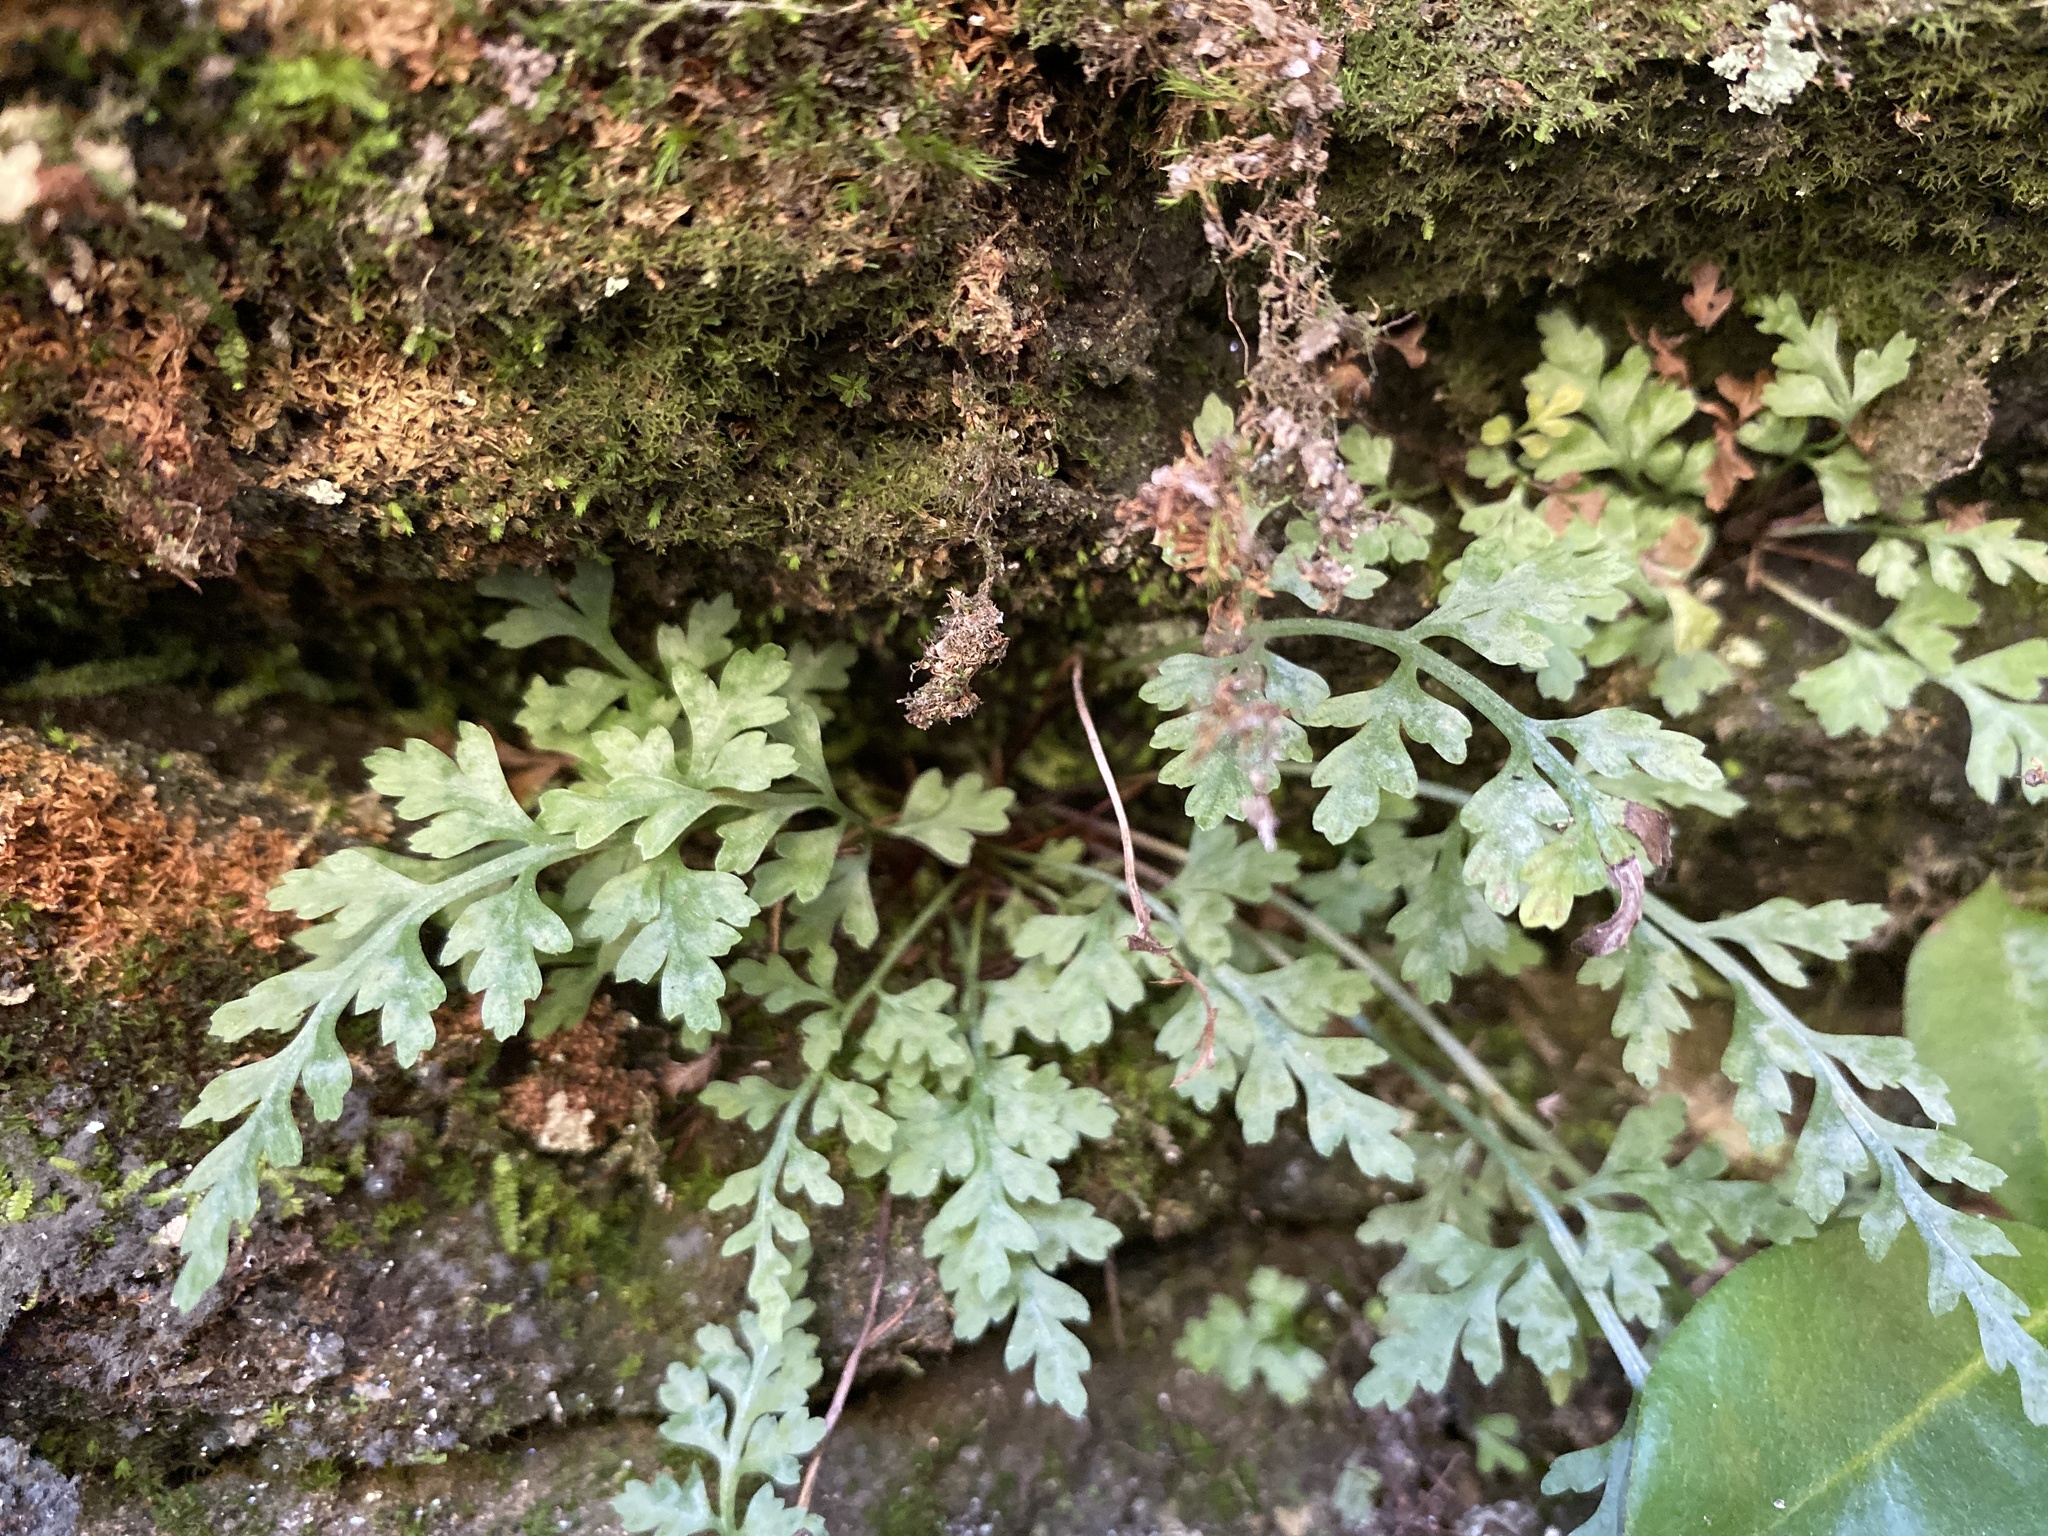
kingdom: Plantae
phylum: Tracheophyta
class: Polypodiopsida
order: Polypodiales
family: Aspleniaceae
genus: Asplenium
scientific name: Asplenium montanum
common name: Mountain spleenwort
